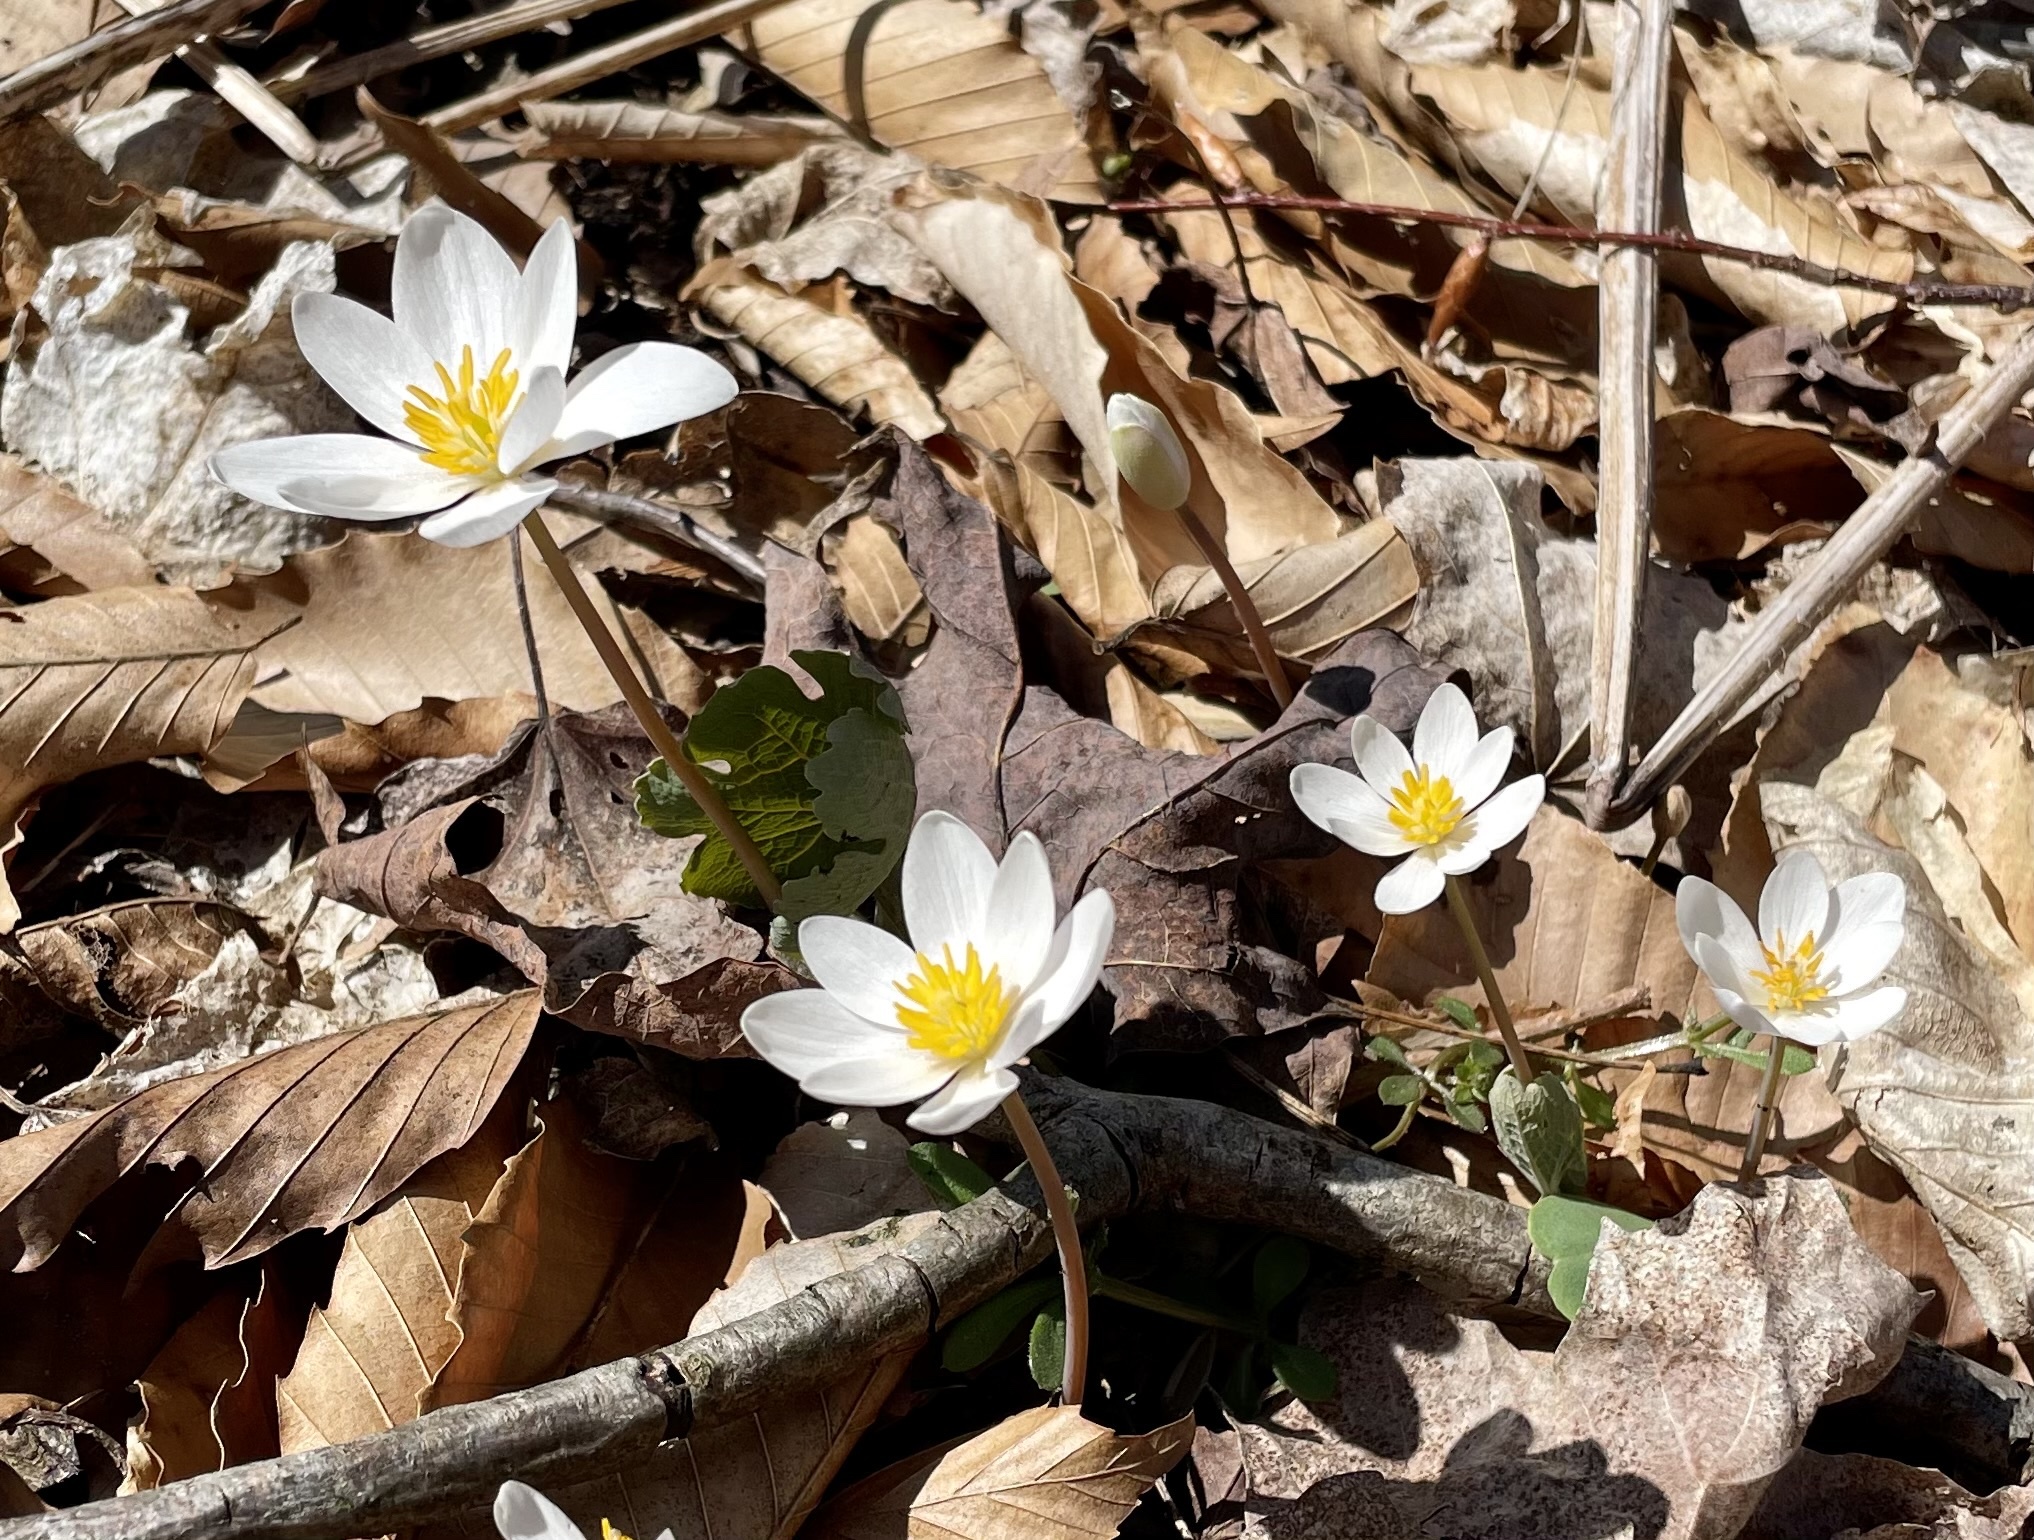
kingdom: Plantae
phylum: Tracheophyta
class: Magnoliopsida
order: Ranunculales
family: Papaveraceae
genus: Sanguinaria
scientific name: Sanguinaria canadensis
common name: Bloodroot
